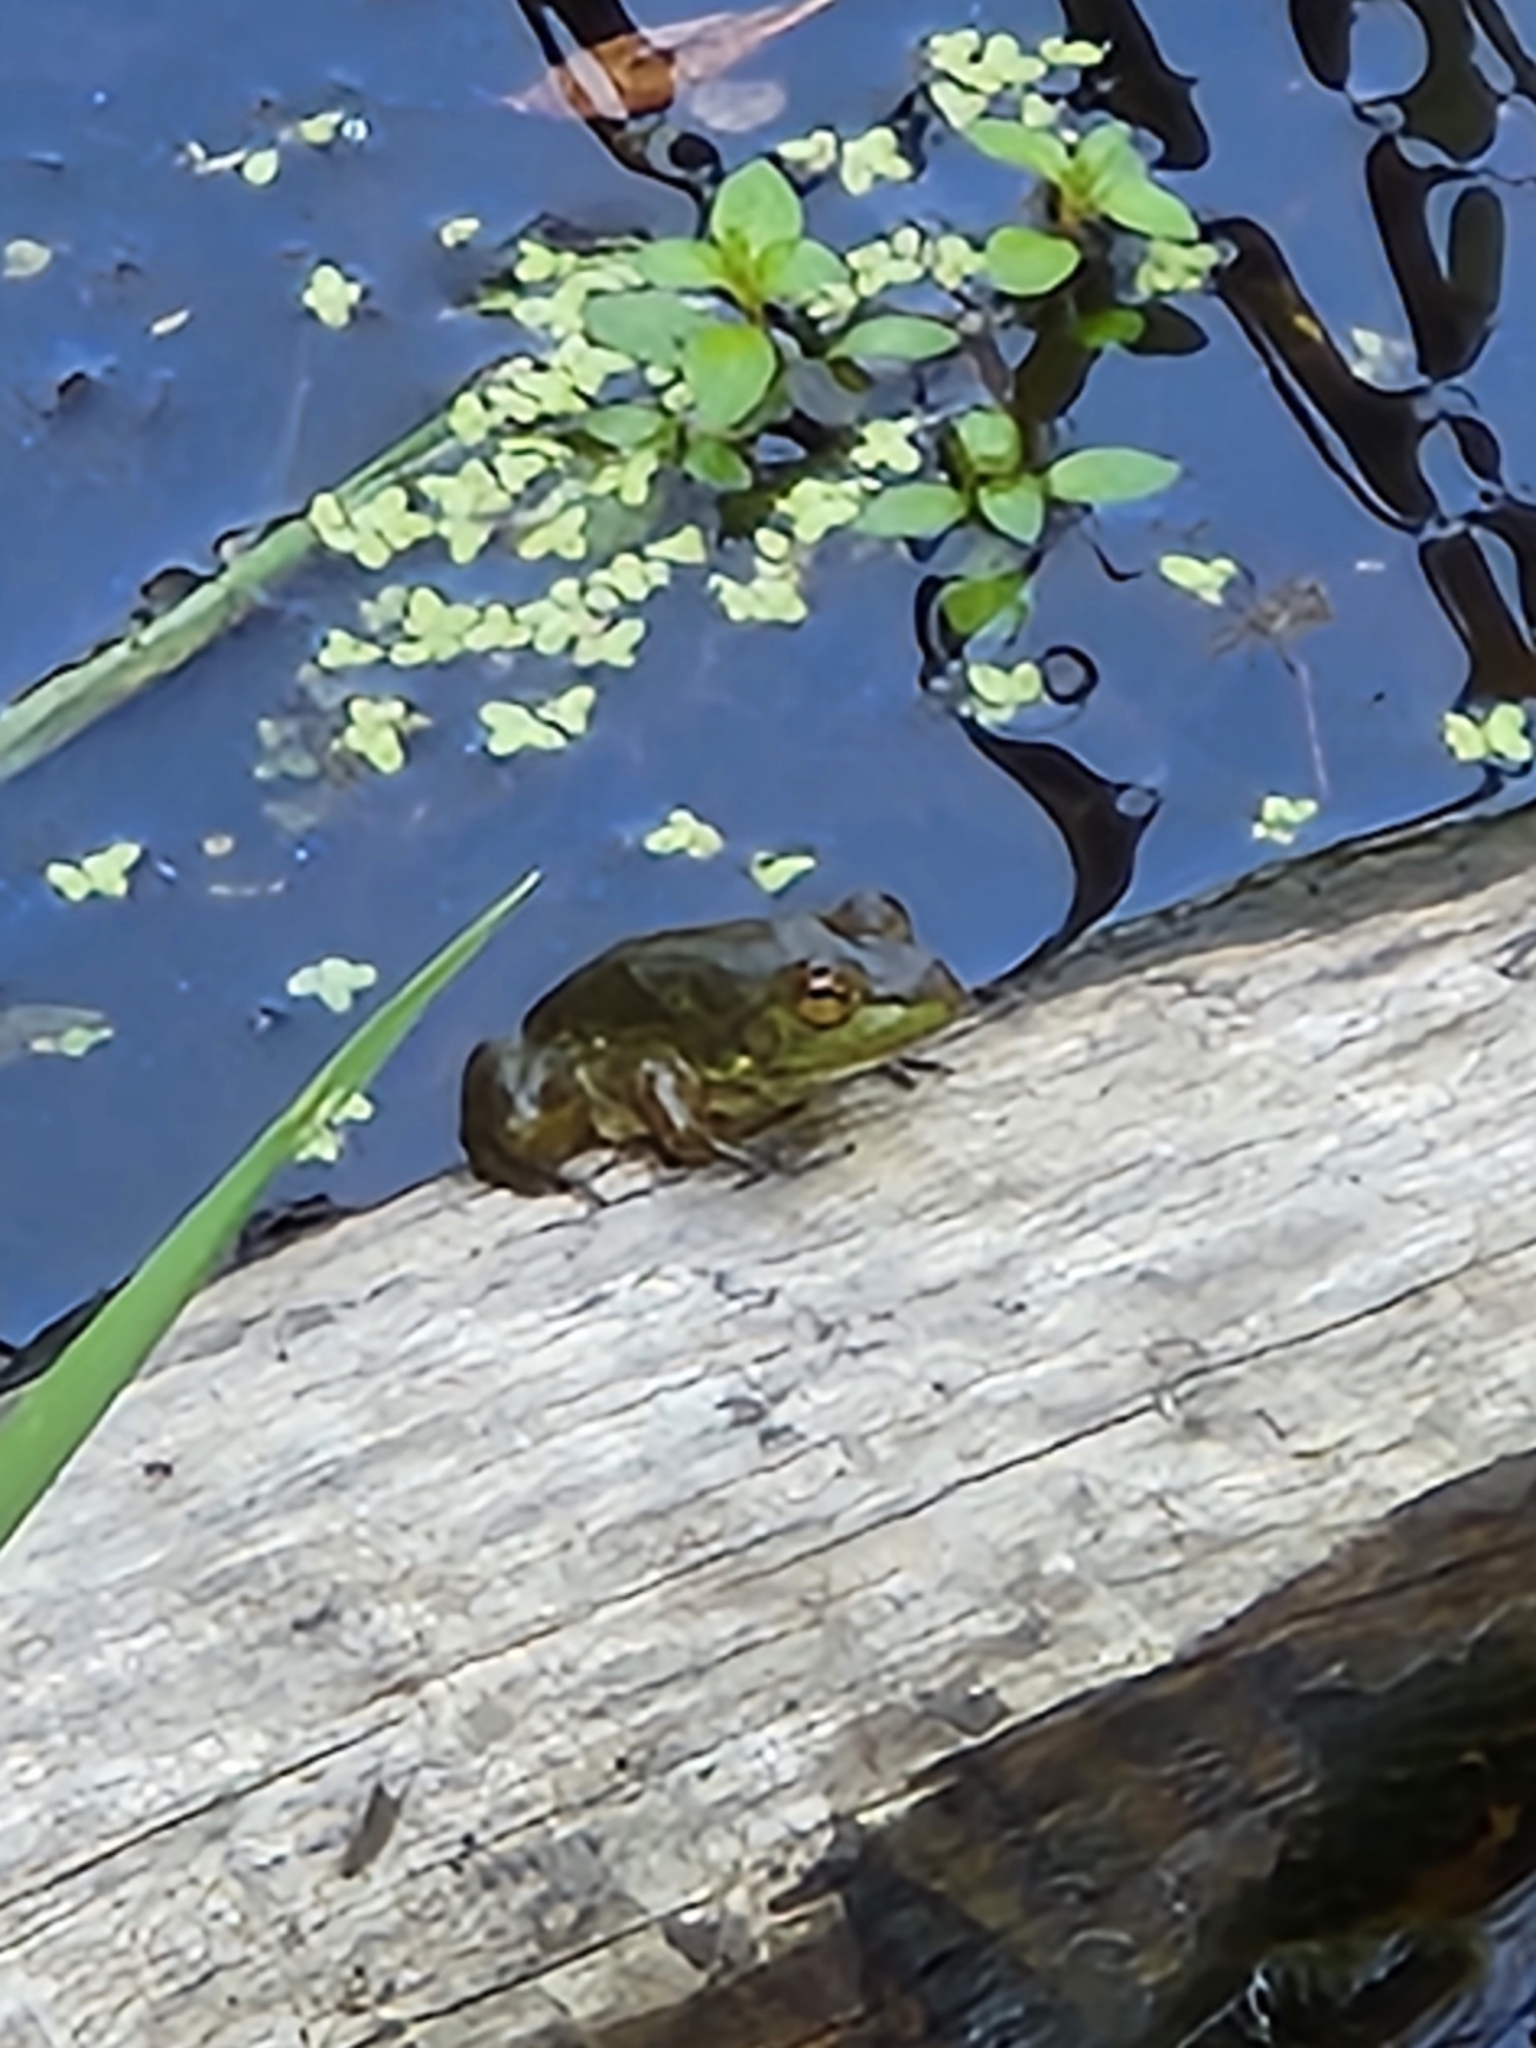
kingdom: Animalia
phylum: Chordata
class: Amphibia
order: Anura
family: Ranidae
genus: Lithobates
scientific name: Lithobates catesbeianus
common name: American bullfrog
